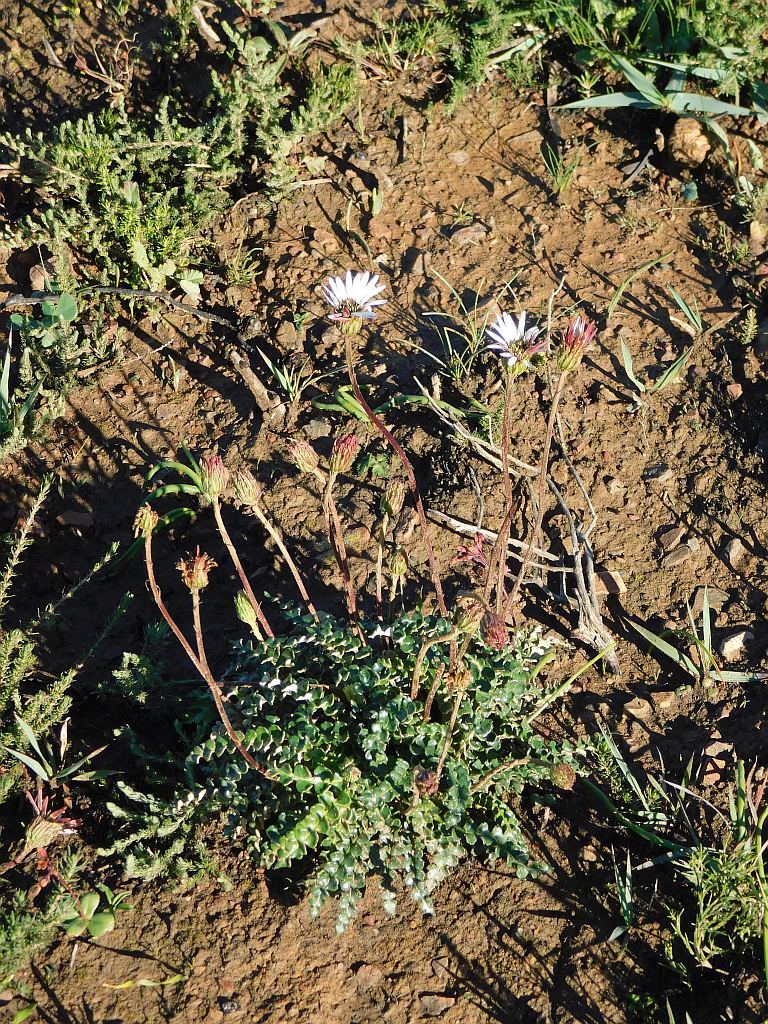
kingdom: Plantae
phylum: Tracheophyta
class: Magnoliopsida
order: Asterales
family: Asteraceae
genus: Gerbera
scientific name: Gerbera linnaei
